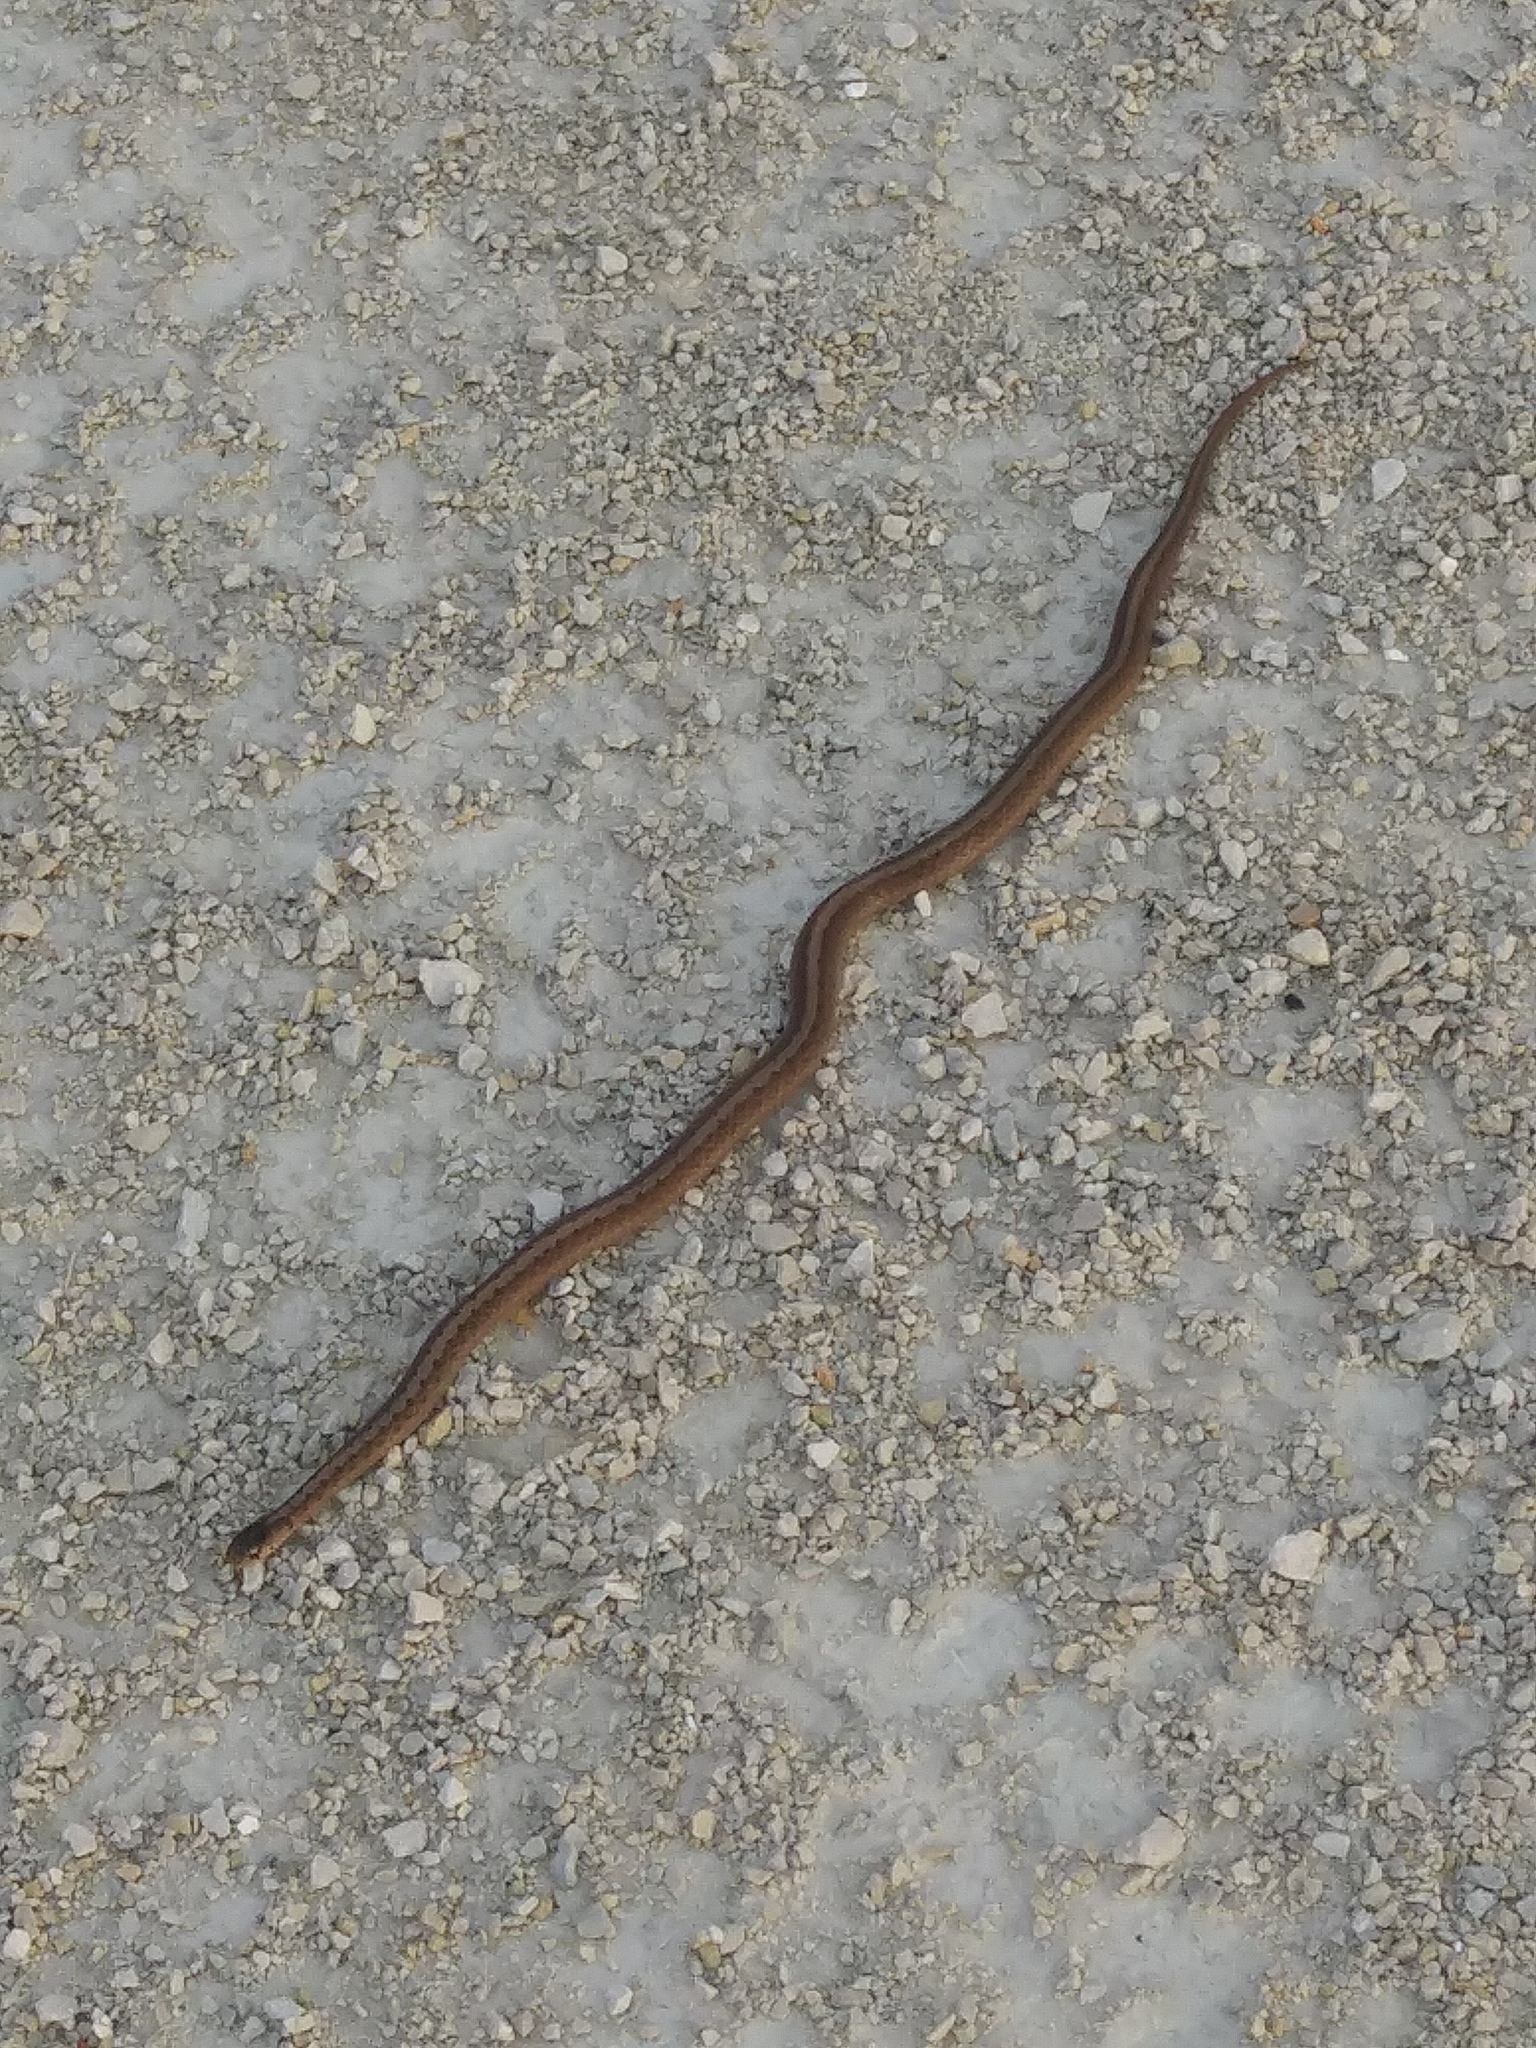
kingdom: Animalia
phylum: Chordata
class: Squamata
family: Colubridae
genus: Storeria
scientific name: Storeria dekayi
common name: (dekay’s) brown snake
